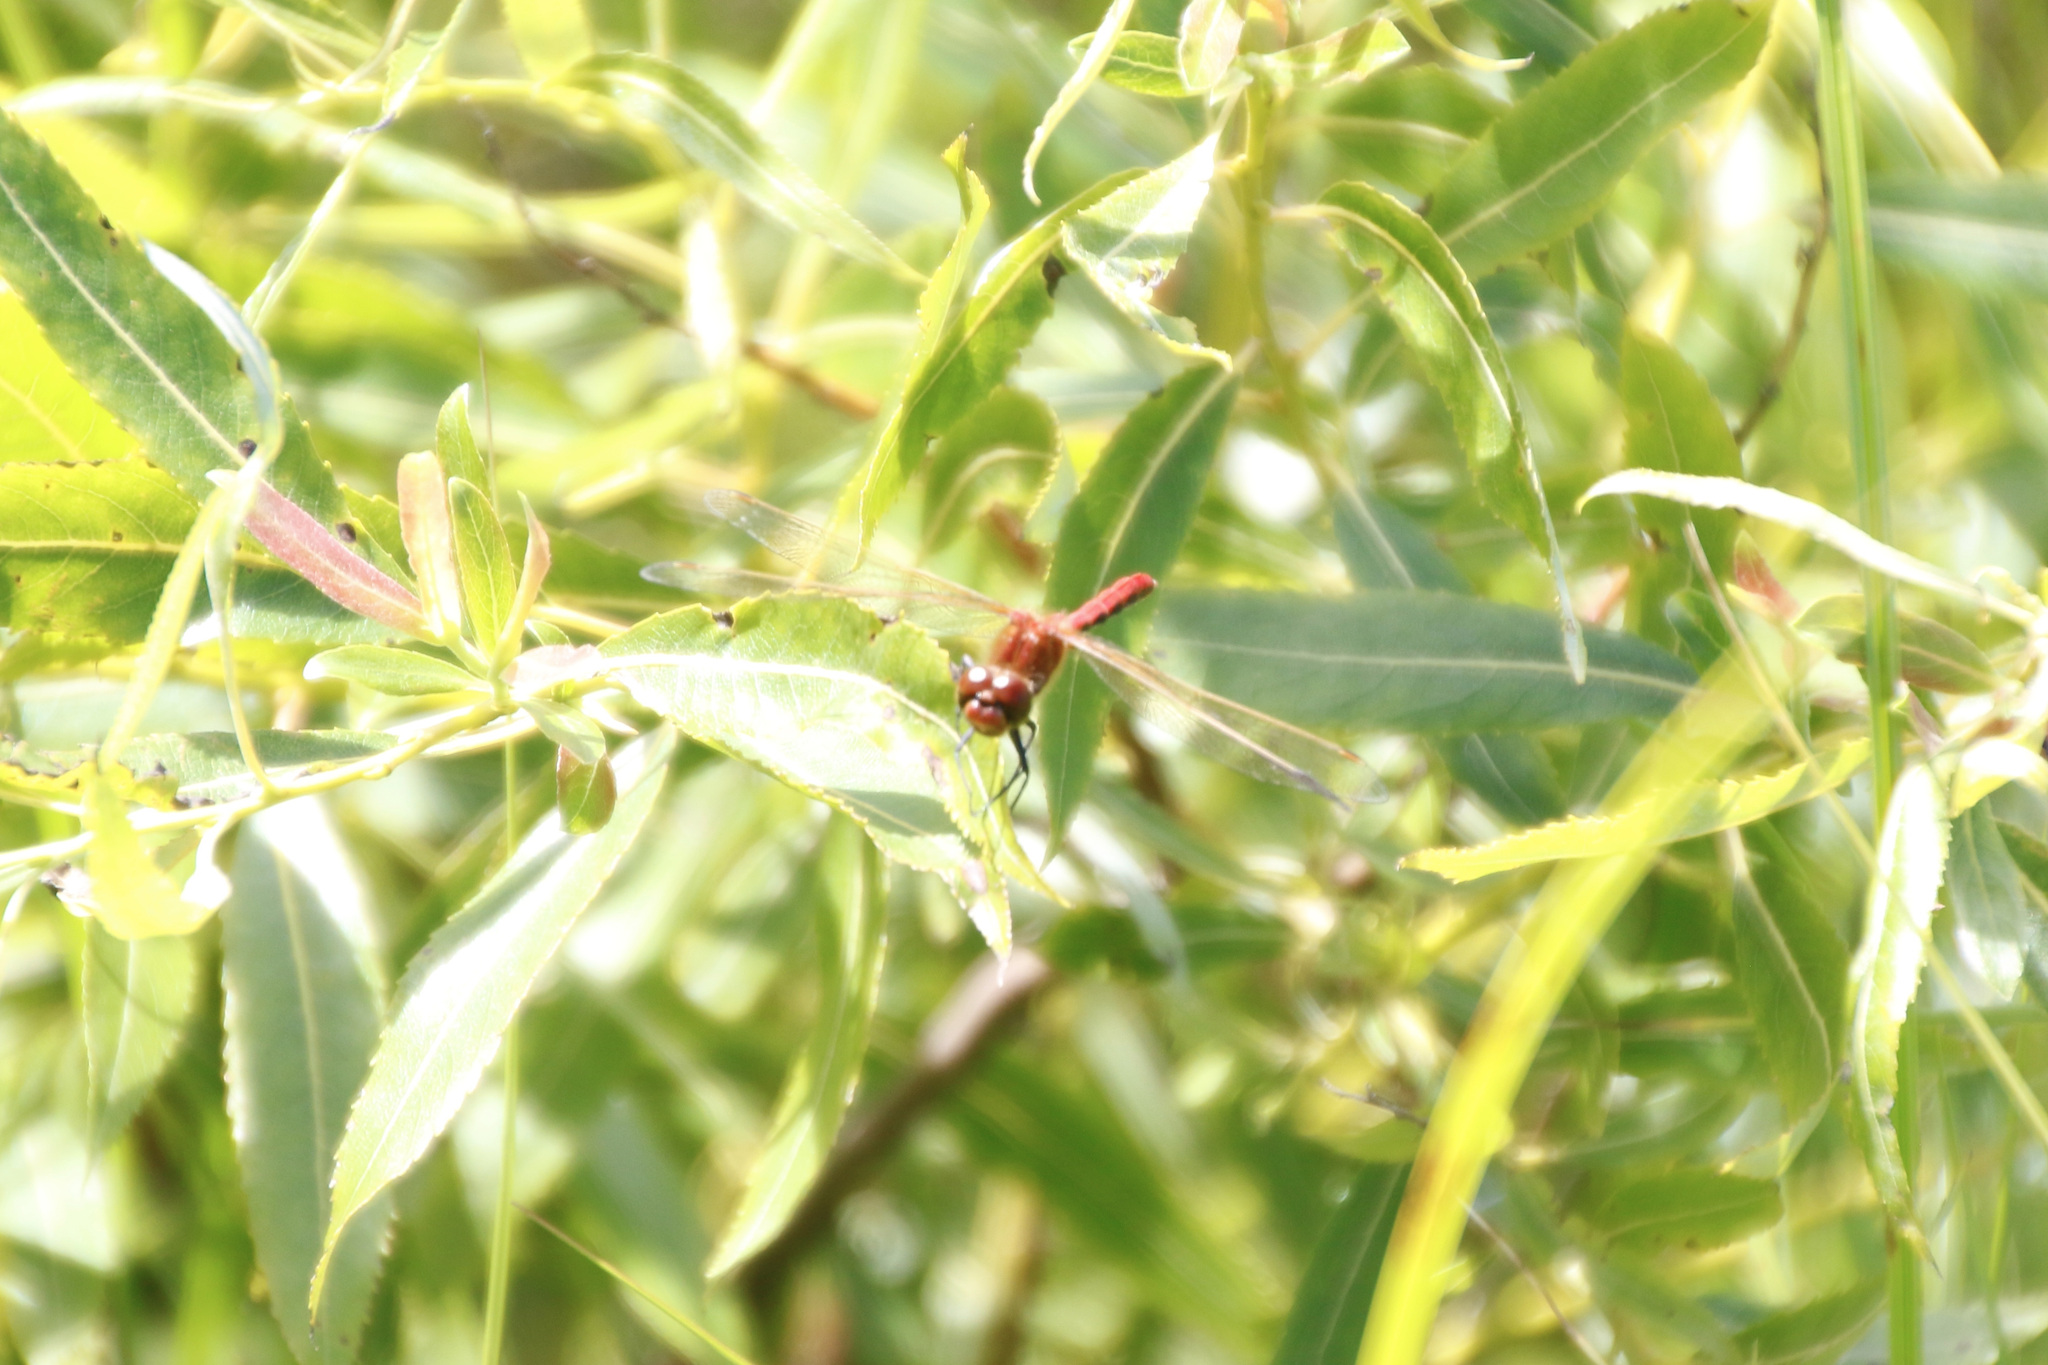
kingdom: Animalia
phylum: Arthropoda
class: Insecta
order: Odonata
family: Libellulidae
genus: Sympetrum
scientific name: Sympetrum internum
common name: Cherry-faced meadowhawk
